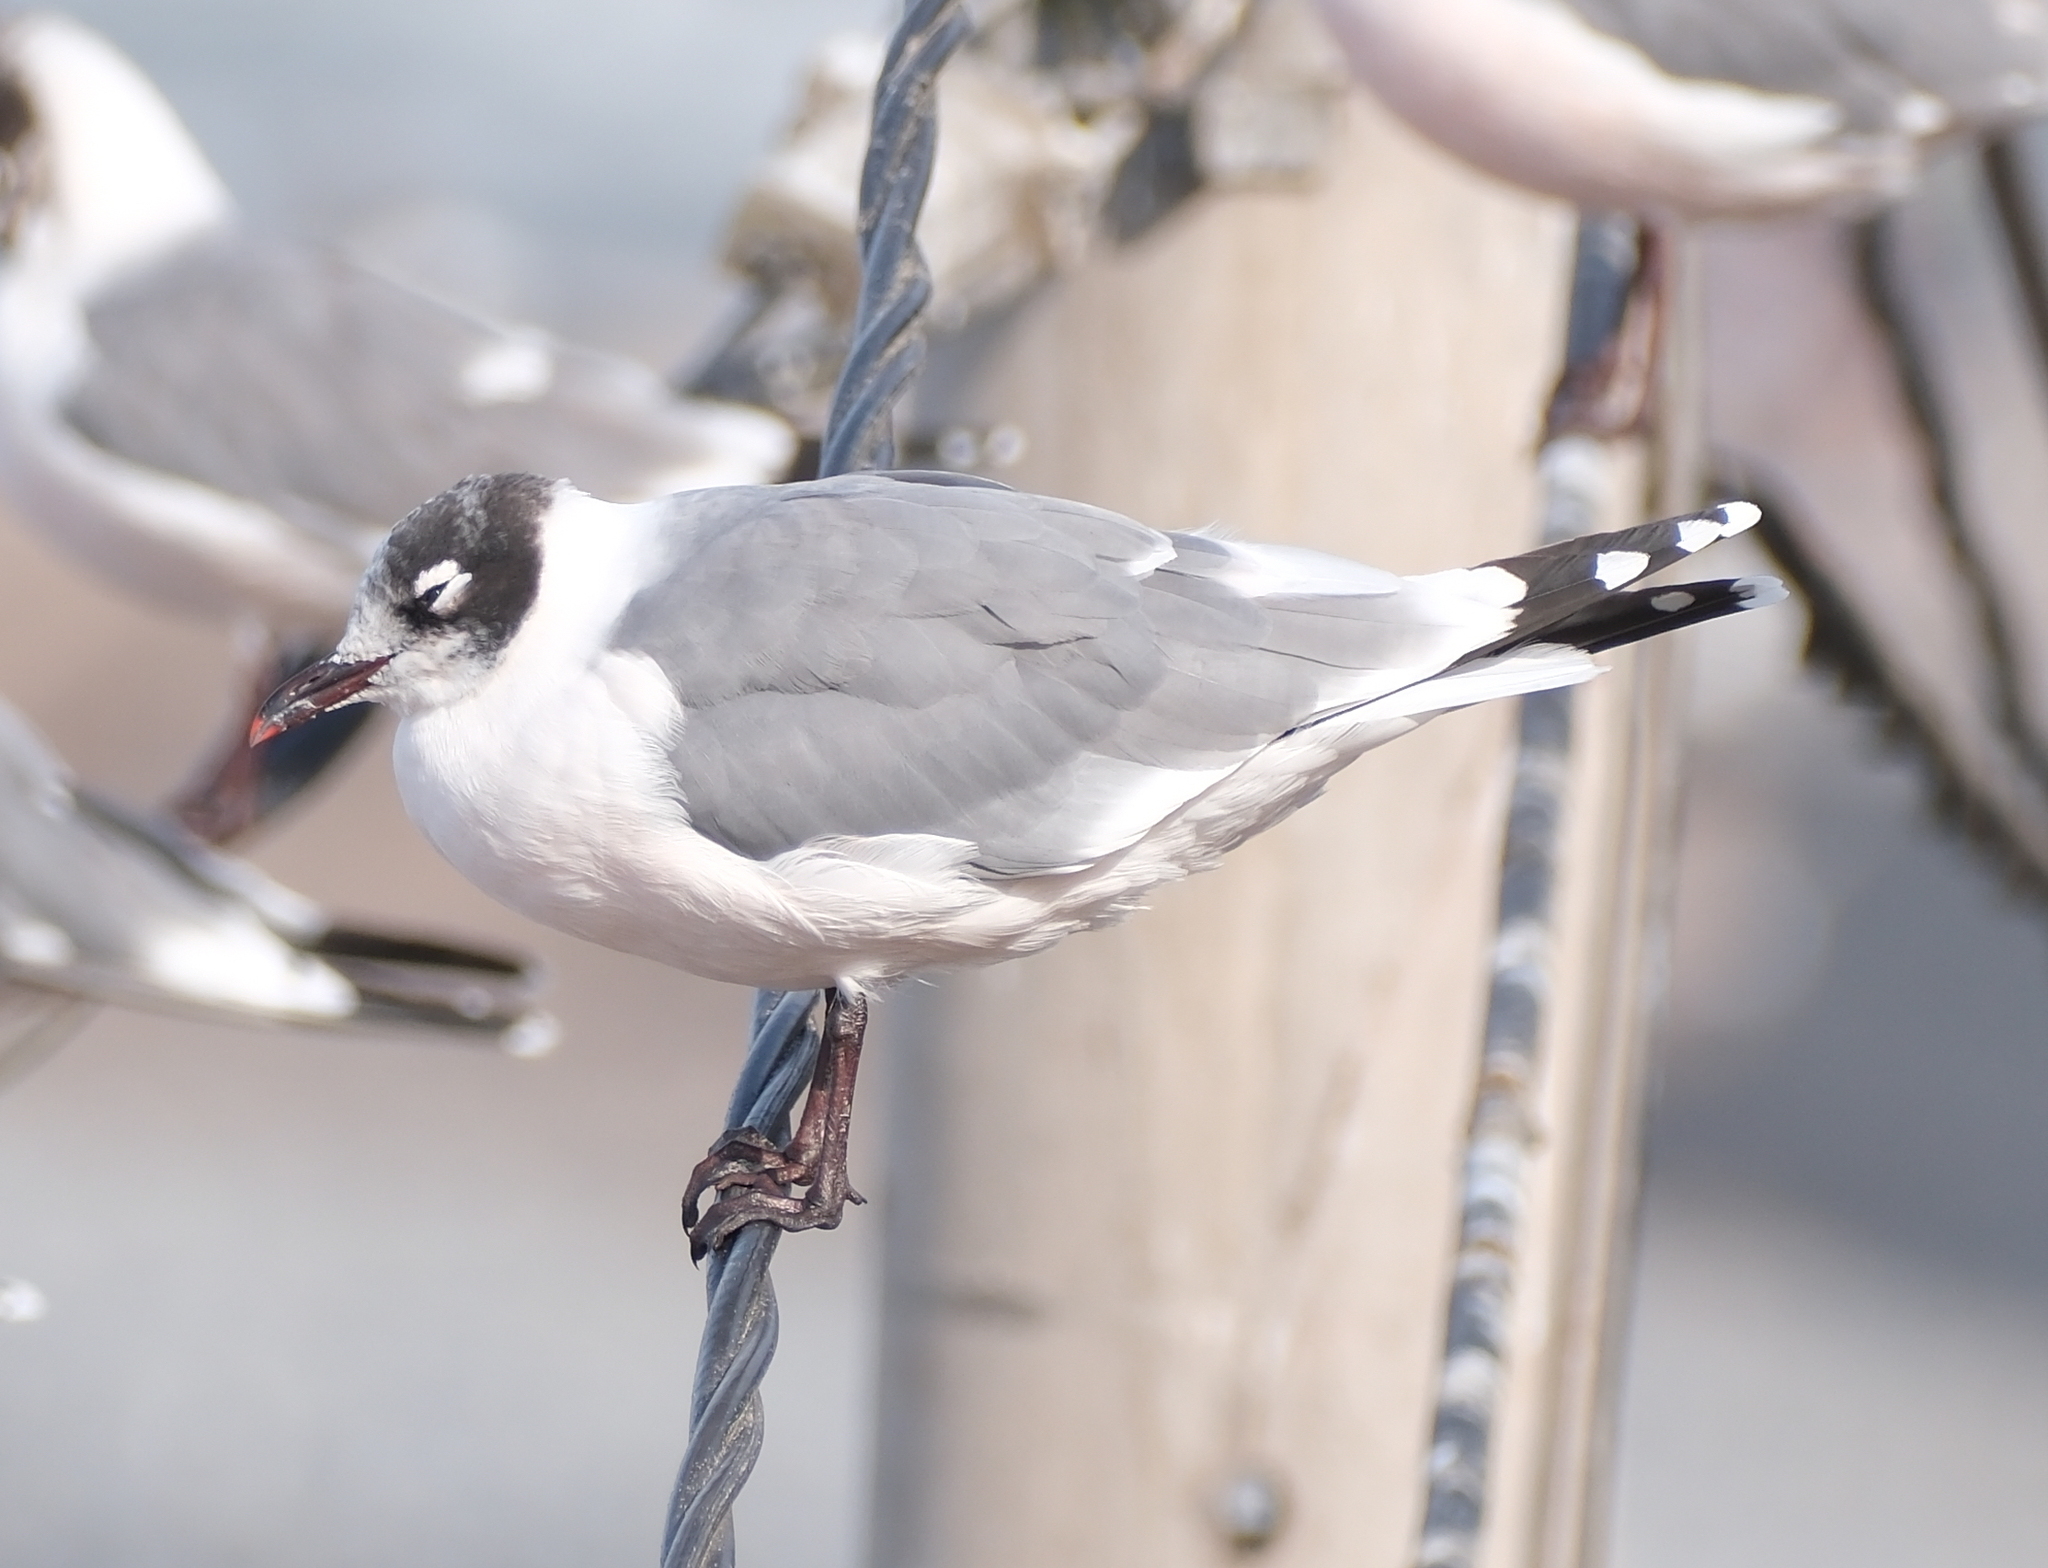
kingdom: Animalia
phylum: Chordata
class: Aves
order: Charadriiformes
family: Laridae
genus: Leucophaeus
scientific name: Leucophaeus pipixcan
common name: Franklin's gull
